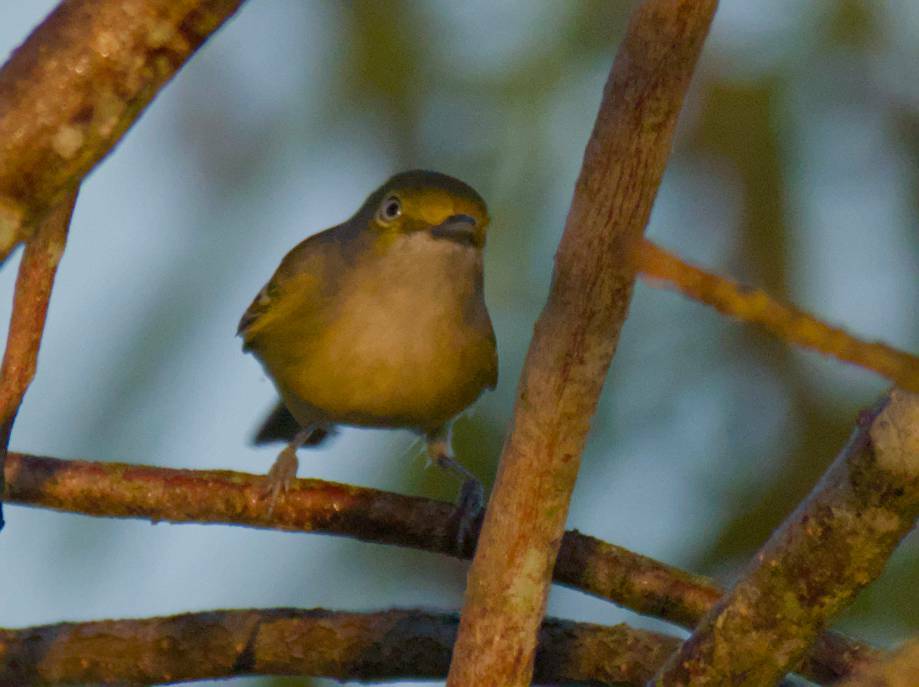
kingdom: Animalia
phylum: Chordata
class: Aves
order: Passeriformes
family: Vireonidae
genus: Vireo
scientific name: Vireo griseus
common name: White-eyed vireo
